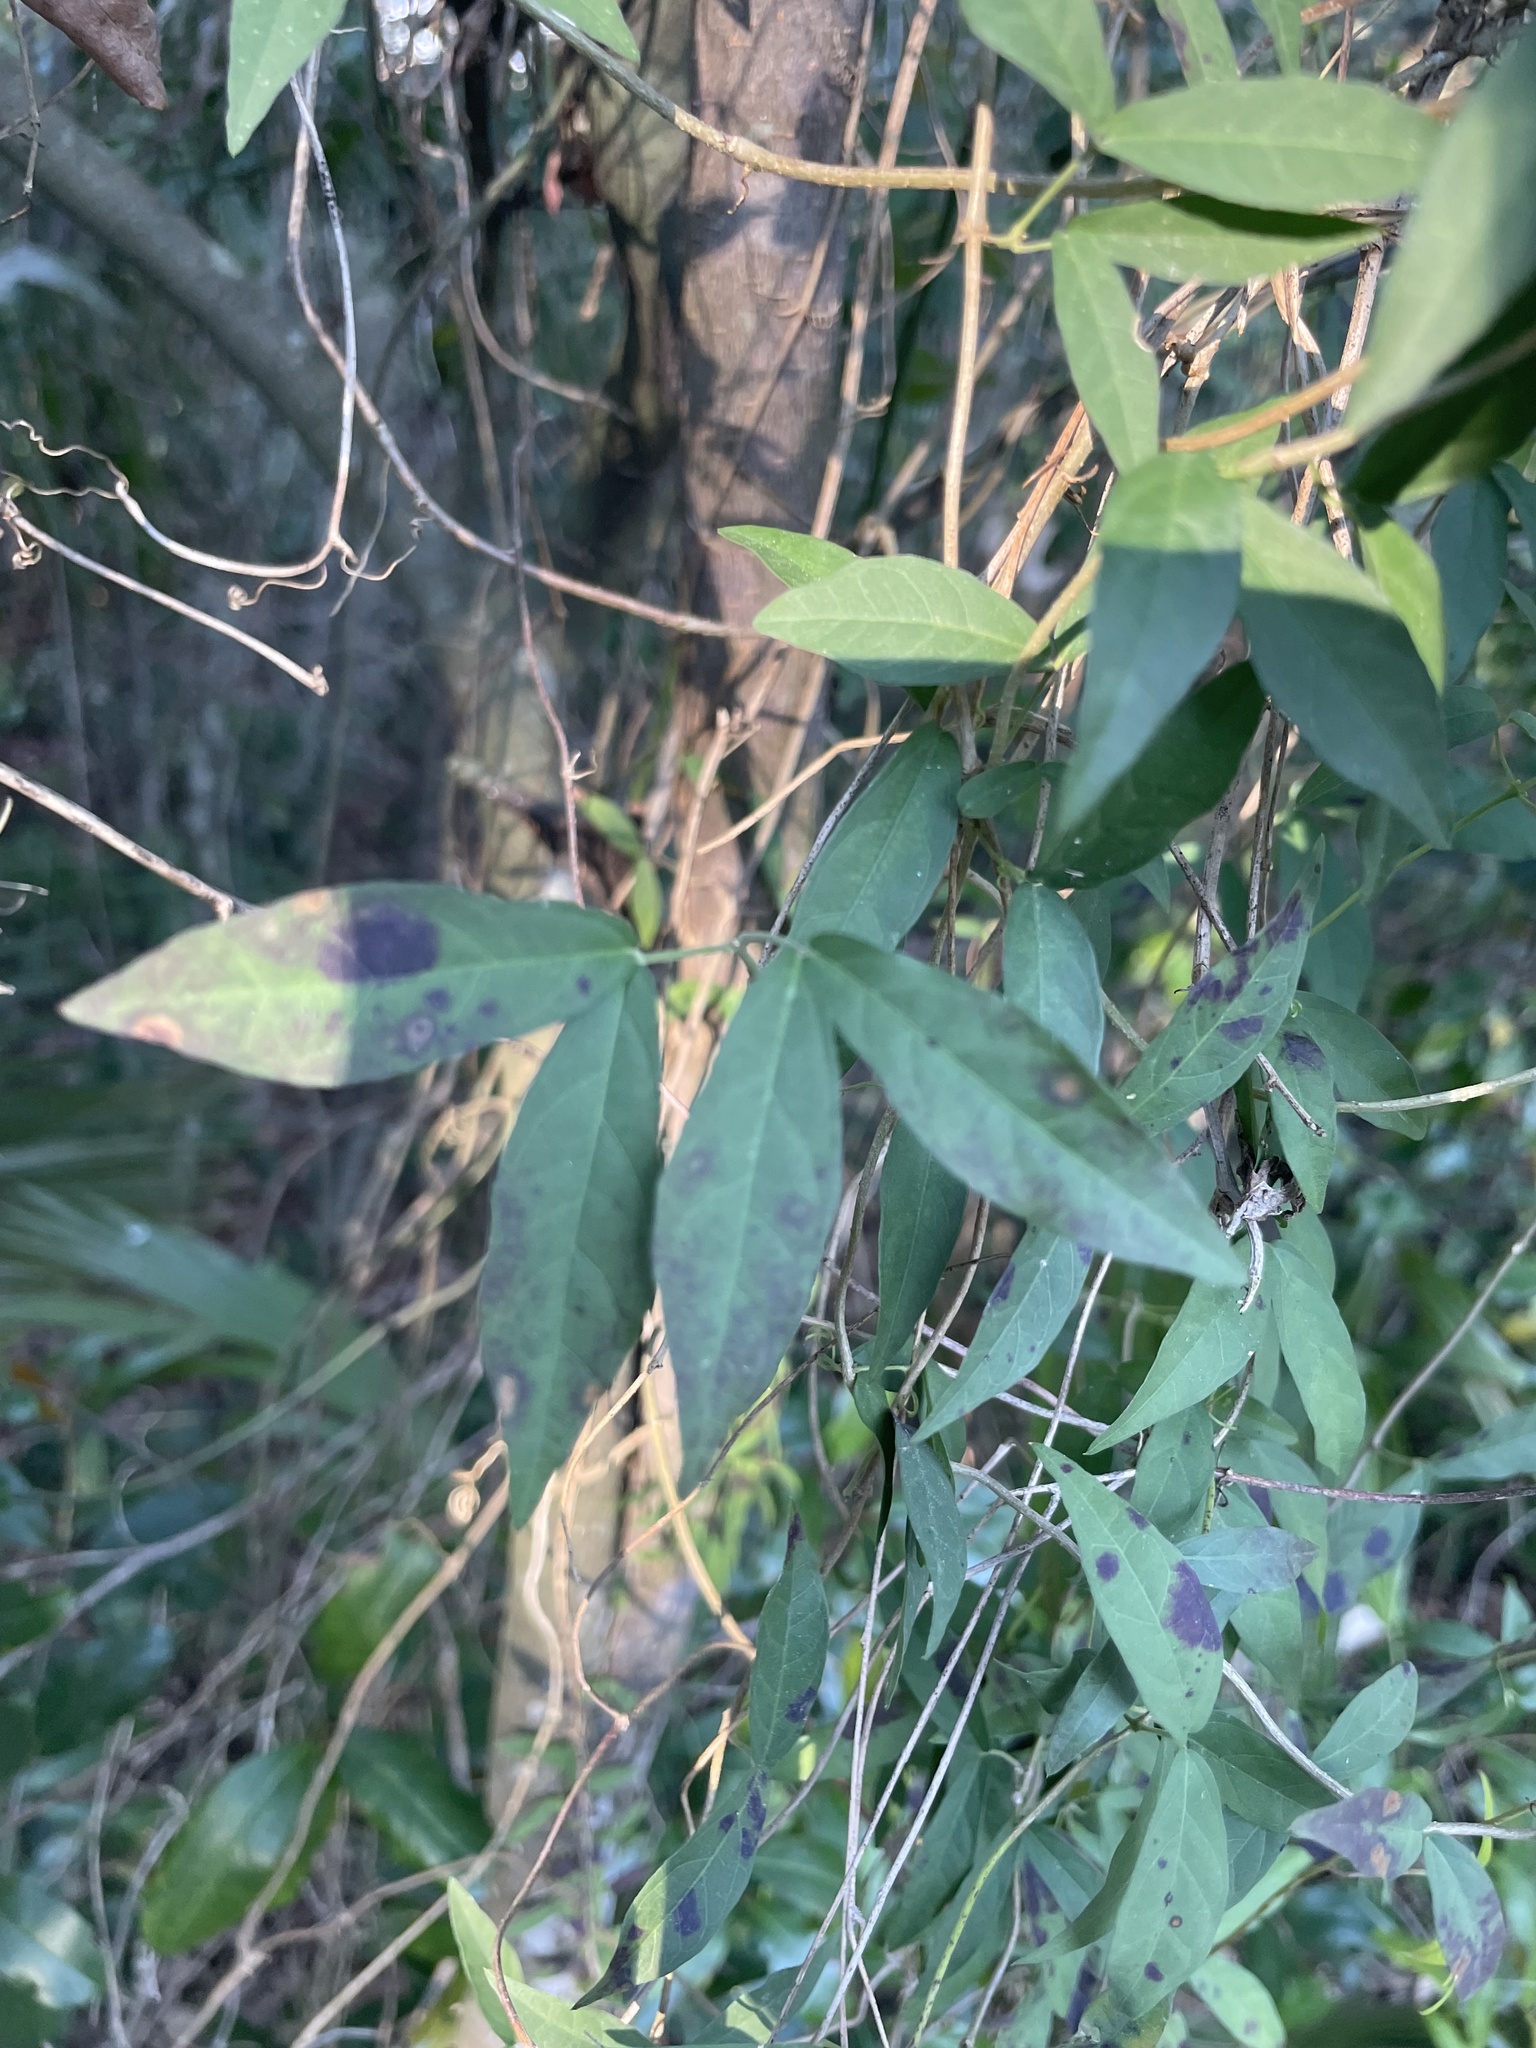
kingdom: Plantae
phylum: Tracheophyta
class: Magnoliopsida
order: Lamiales
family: Bignoniaceae
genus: Dolichandra
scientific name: Dolichandra unguis-cati
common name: Catclaw vine
